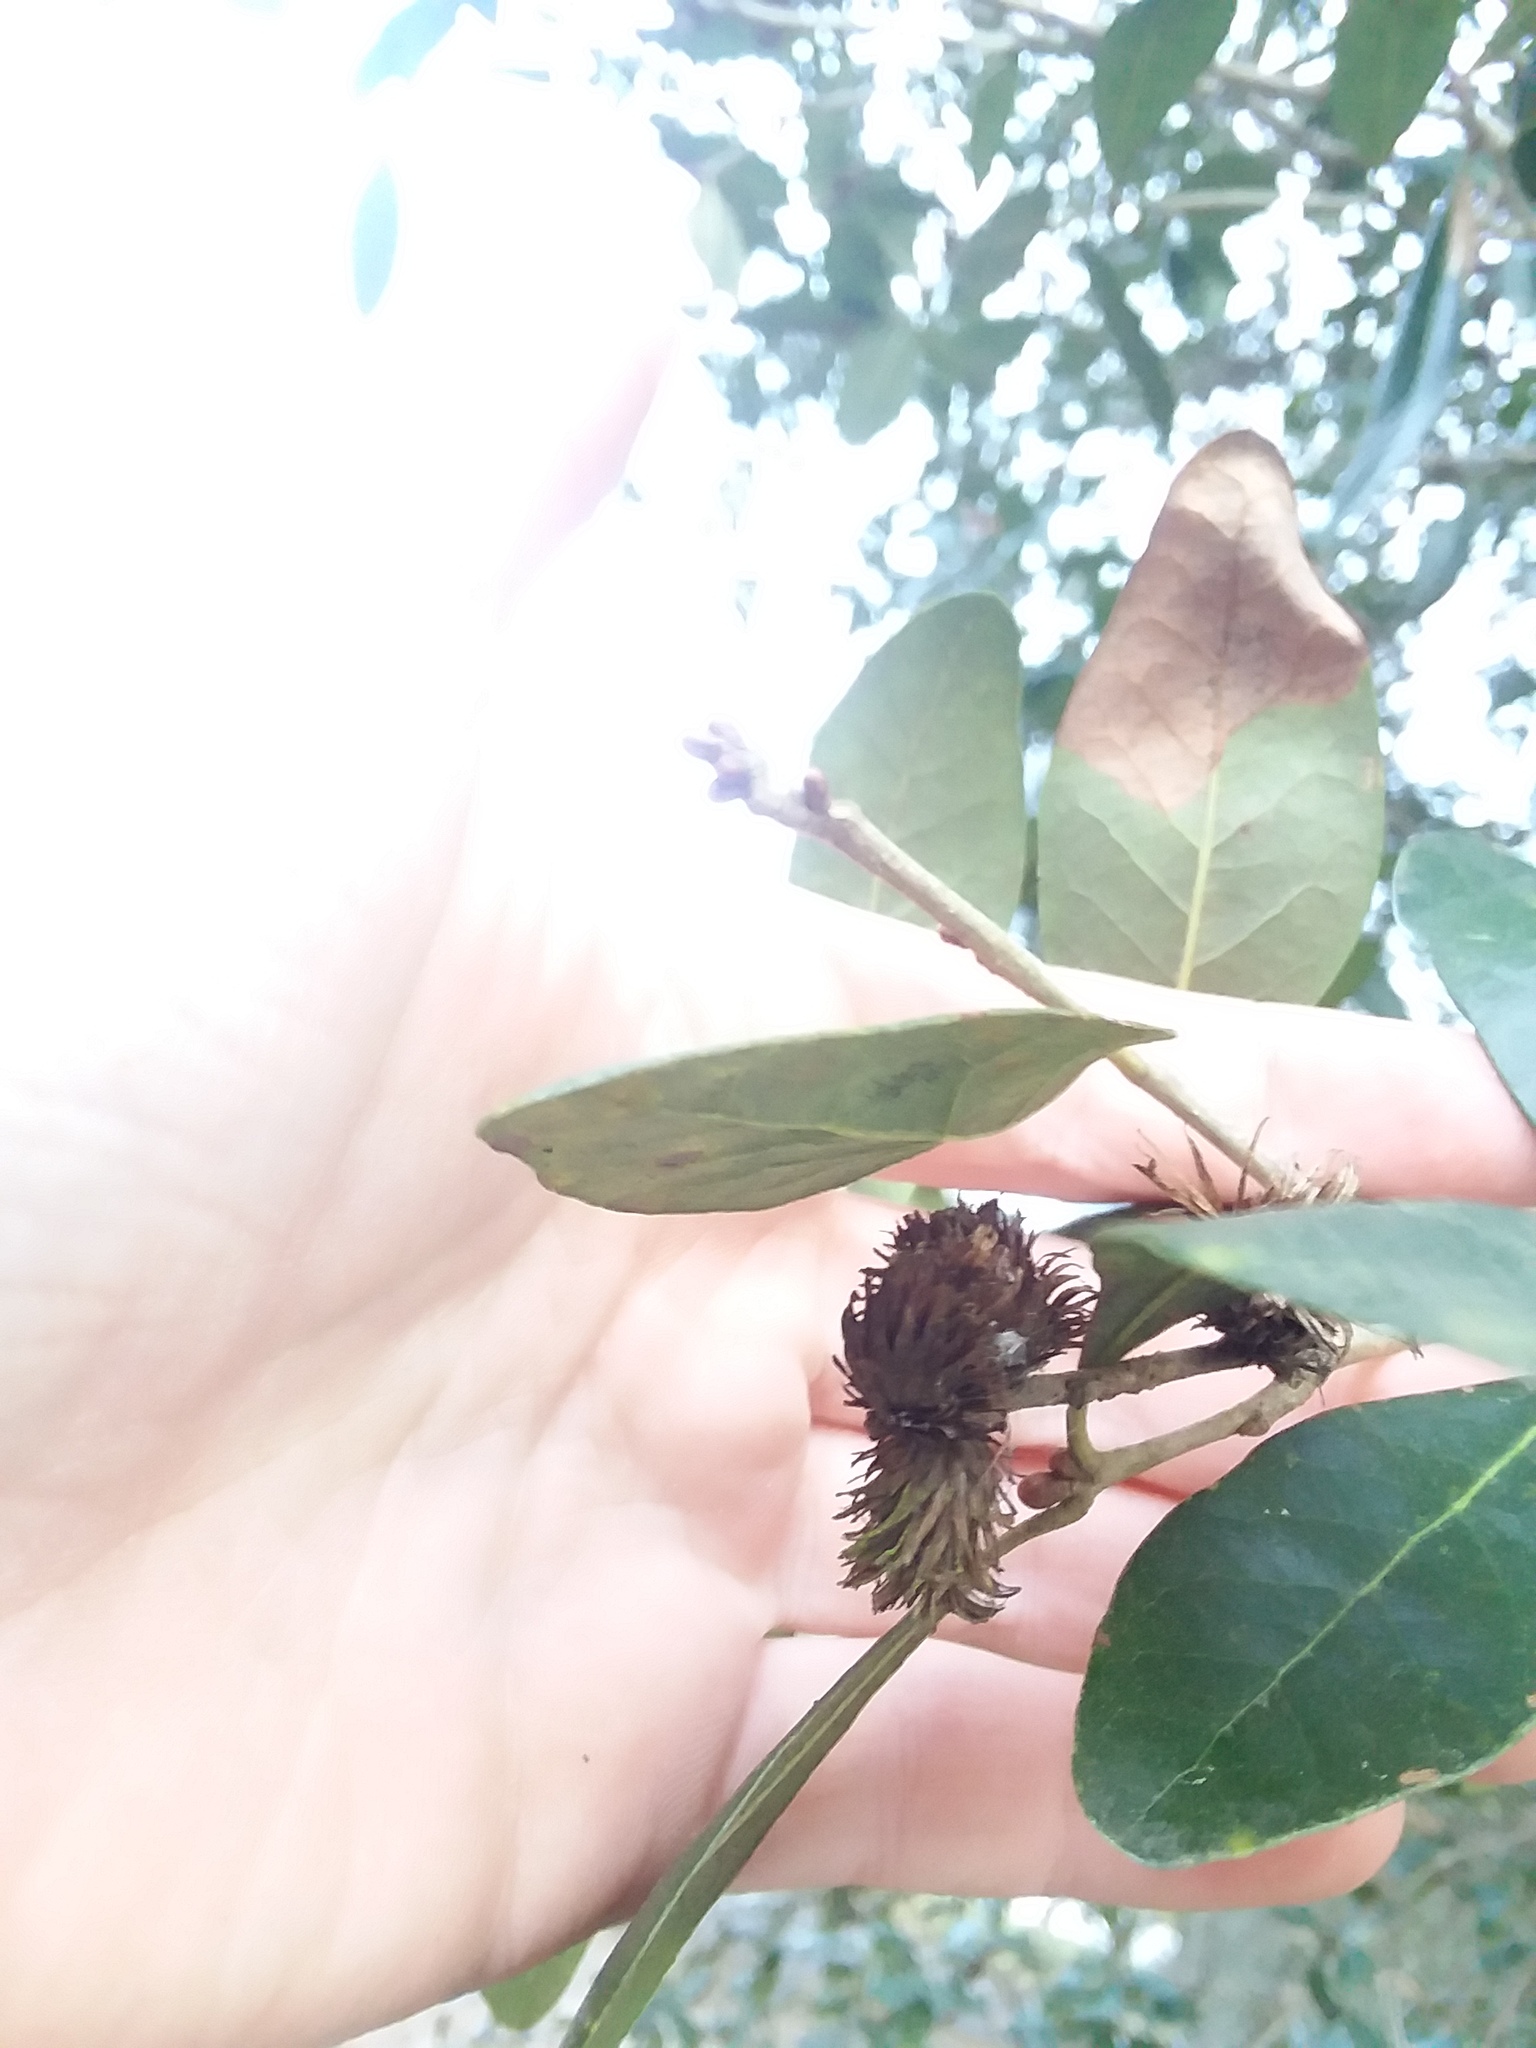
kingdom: Animalia
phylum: Arthropoda
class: Insecta
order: Hymenoptera
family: Cynipidae
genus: Andricus
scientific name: Andricus quercusfoliatus
